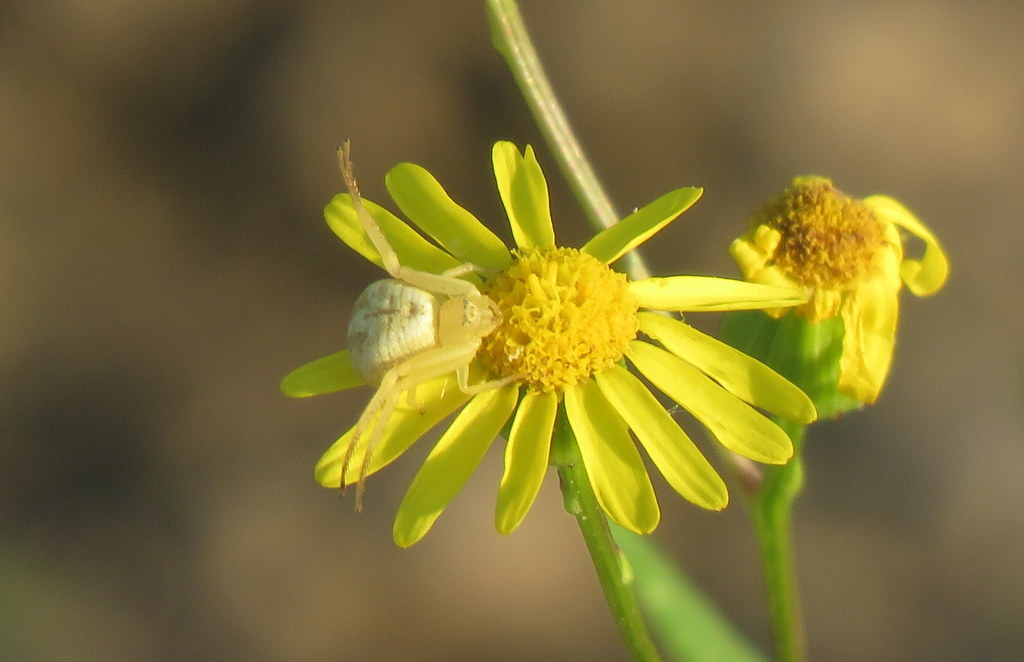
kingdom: Animalia
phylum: Arthropoda
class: Arachnida
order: Araneae
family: Thomisidae
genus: Misumenops
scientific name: Misumenops
